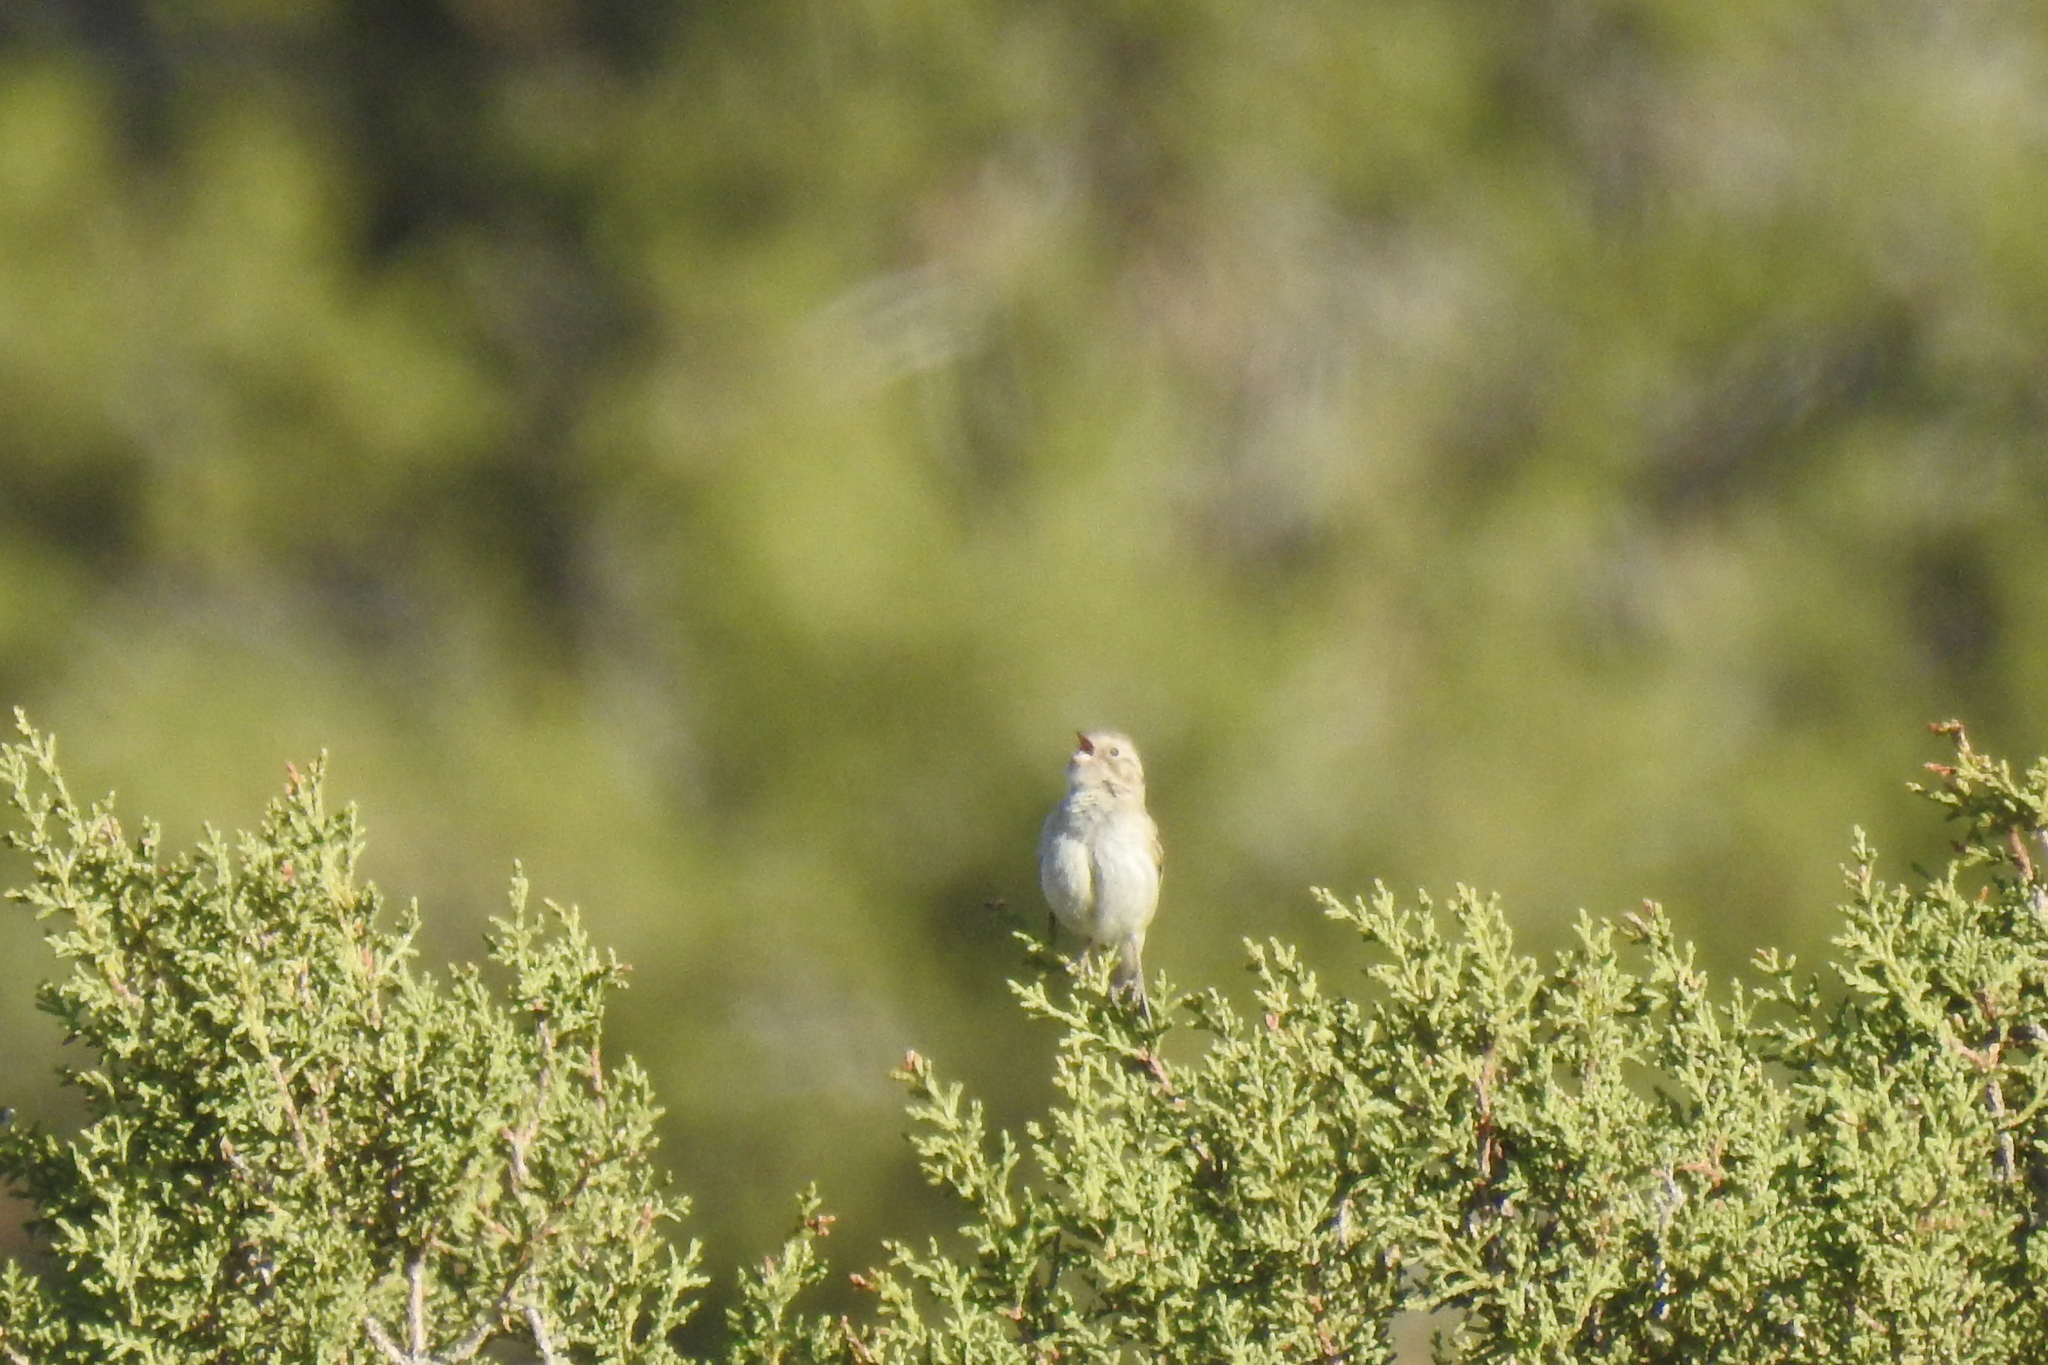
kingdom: Animalia
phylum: Chordata
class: Aves
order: Passeriformes
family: Passerellidae
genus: Spizella
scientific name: Spizella breweri
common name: Brewer's sparrow
